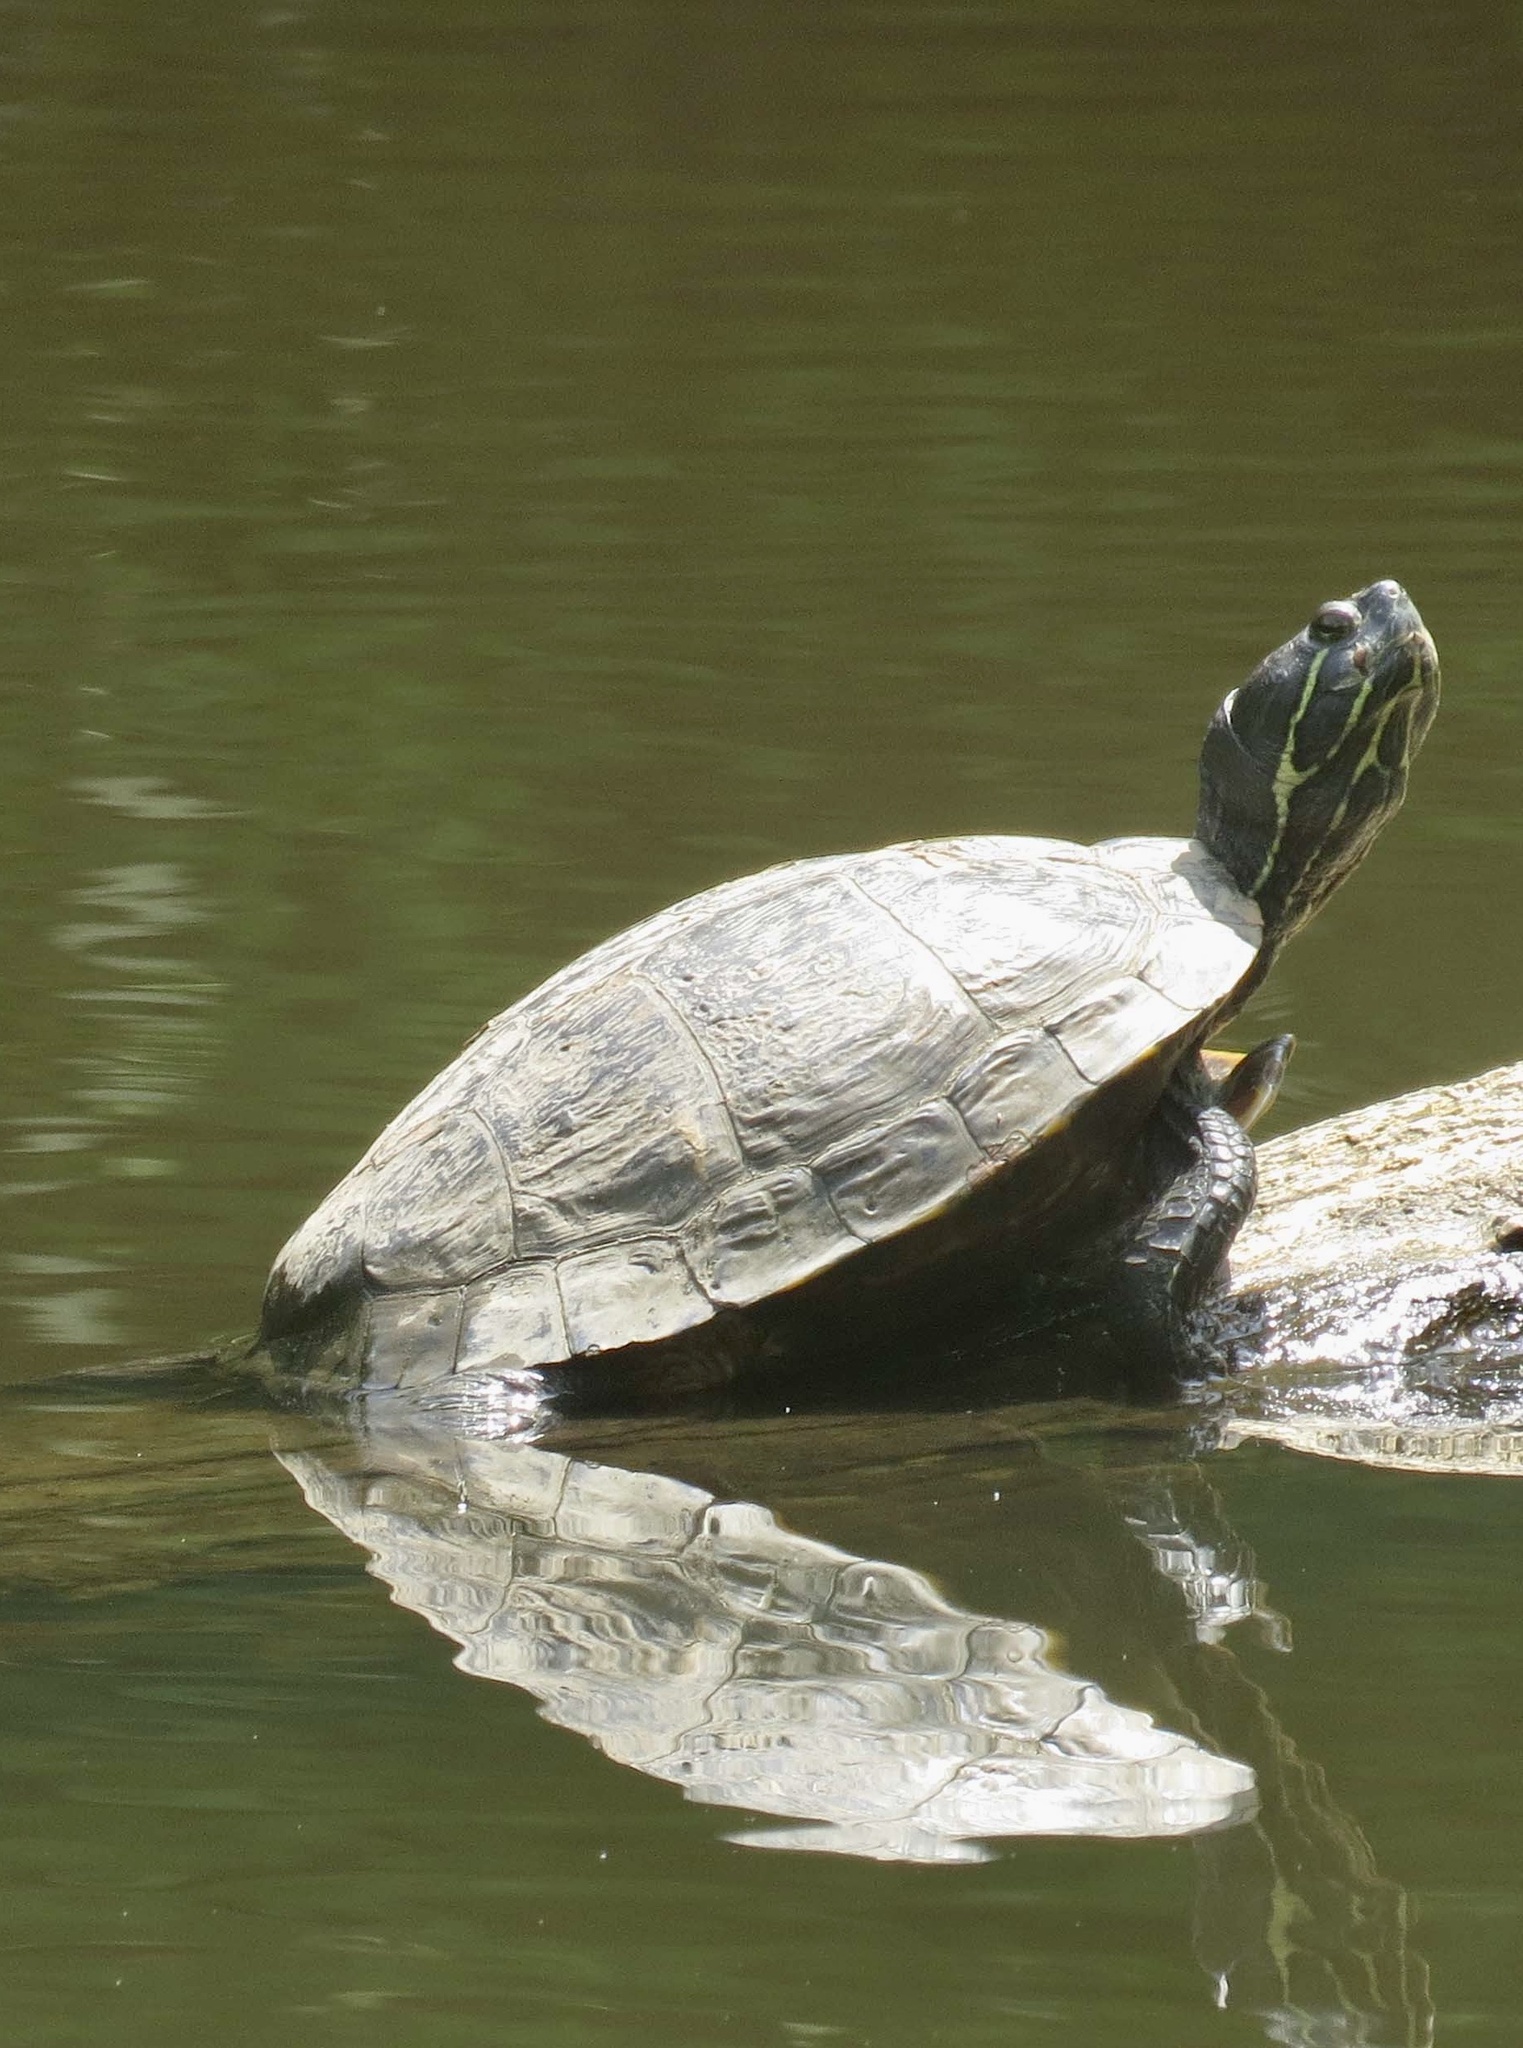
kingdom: Animalia
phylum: Chordata
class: Testudines
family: Emydidae
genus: Trachemys
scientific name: Trachemys scripta
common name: Slider
